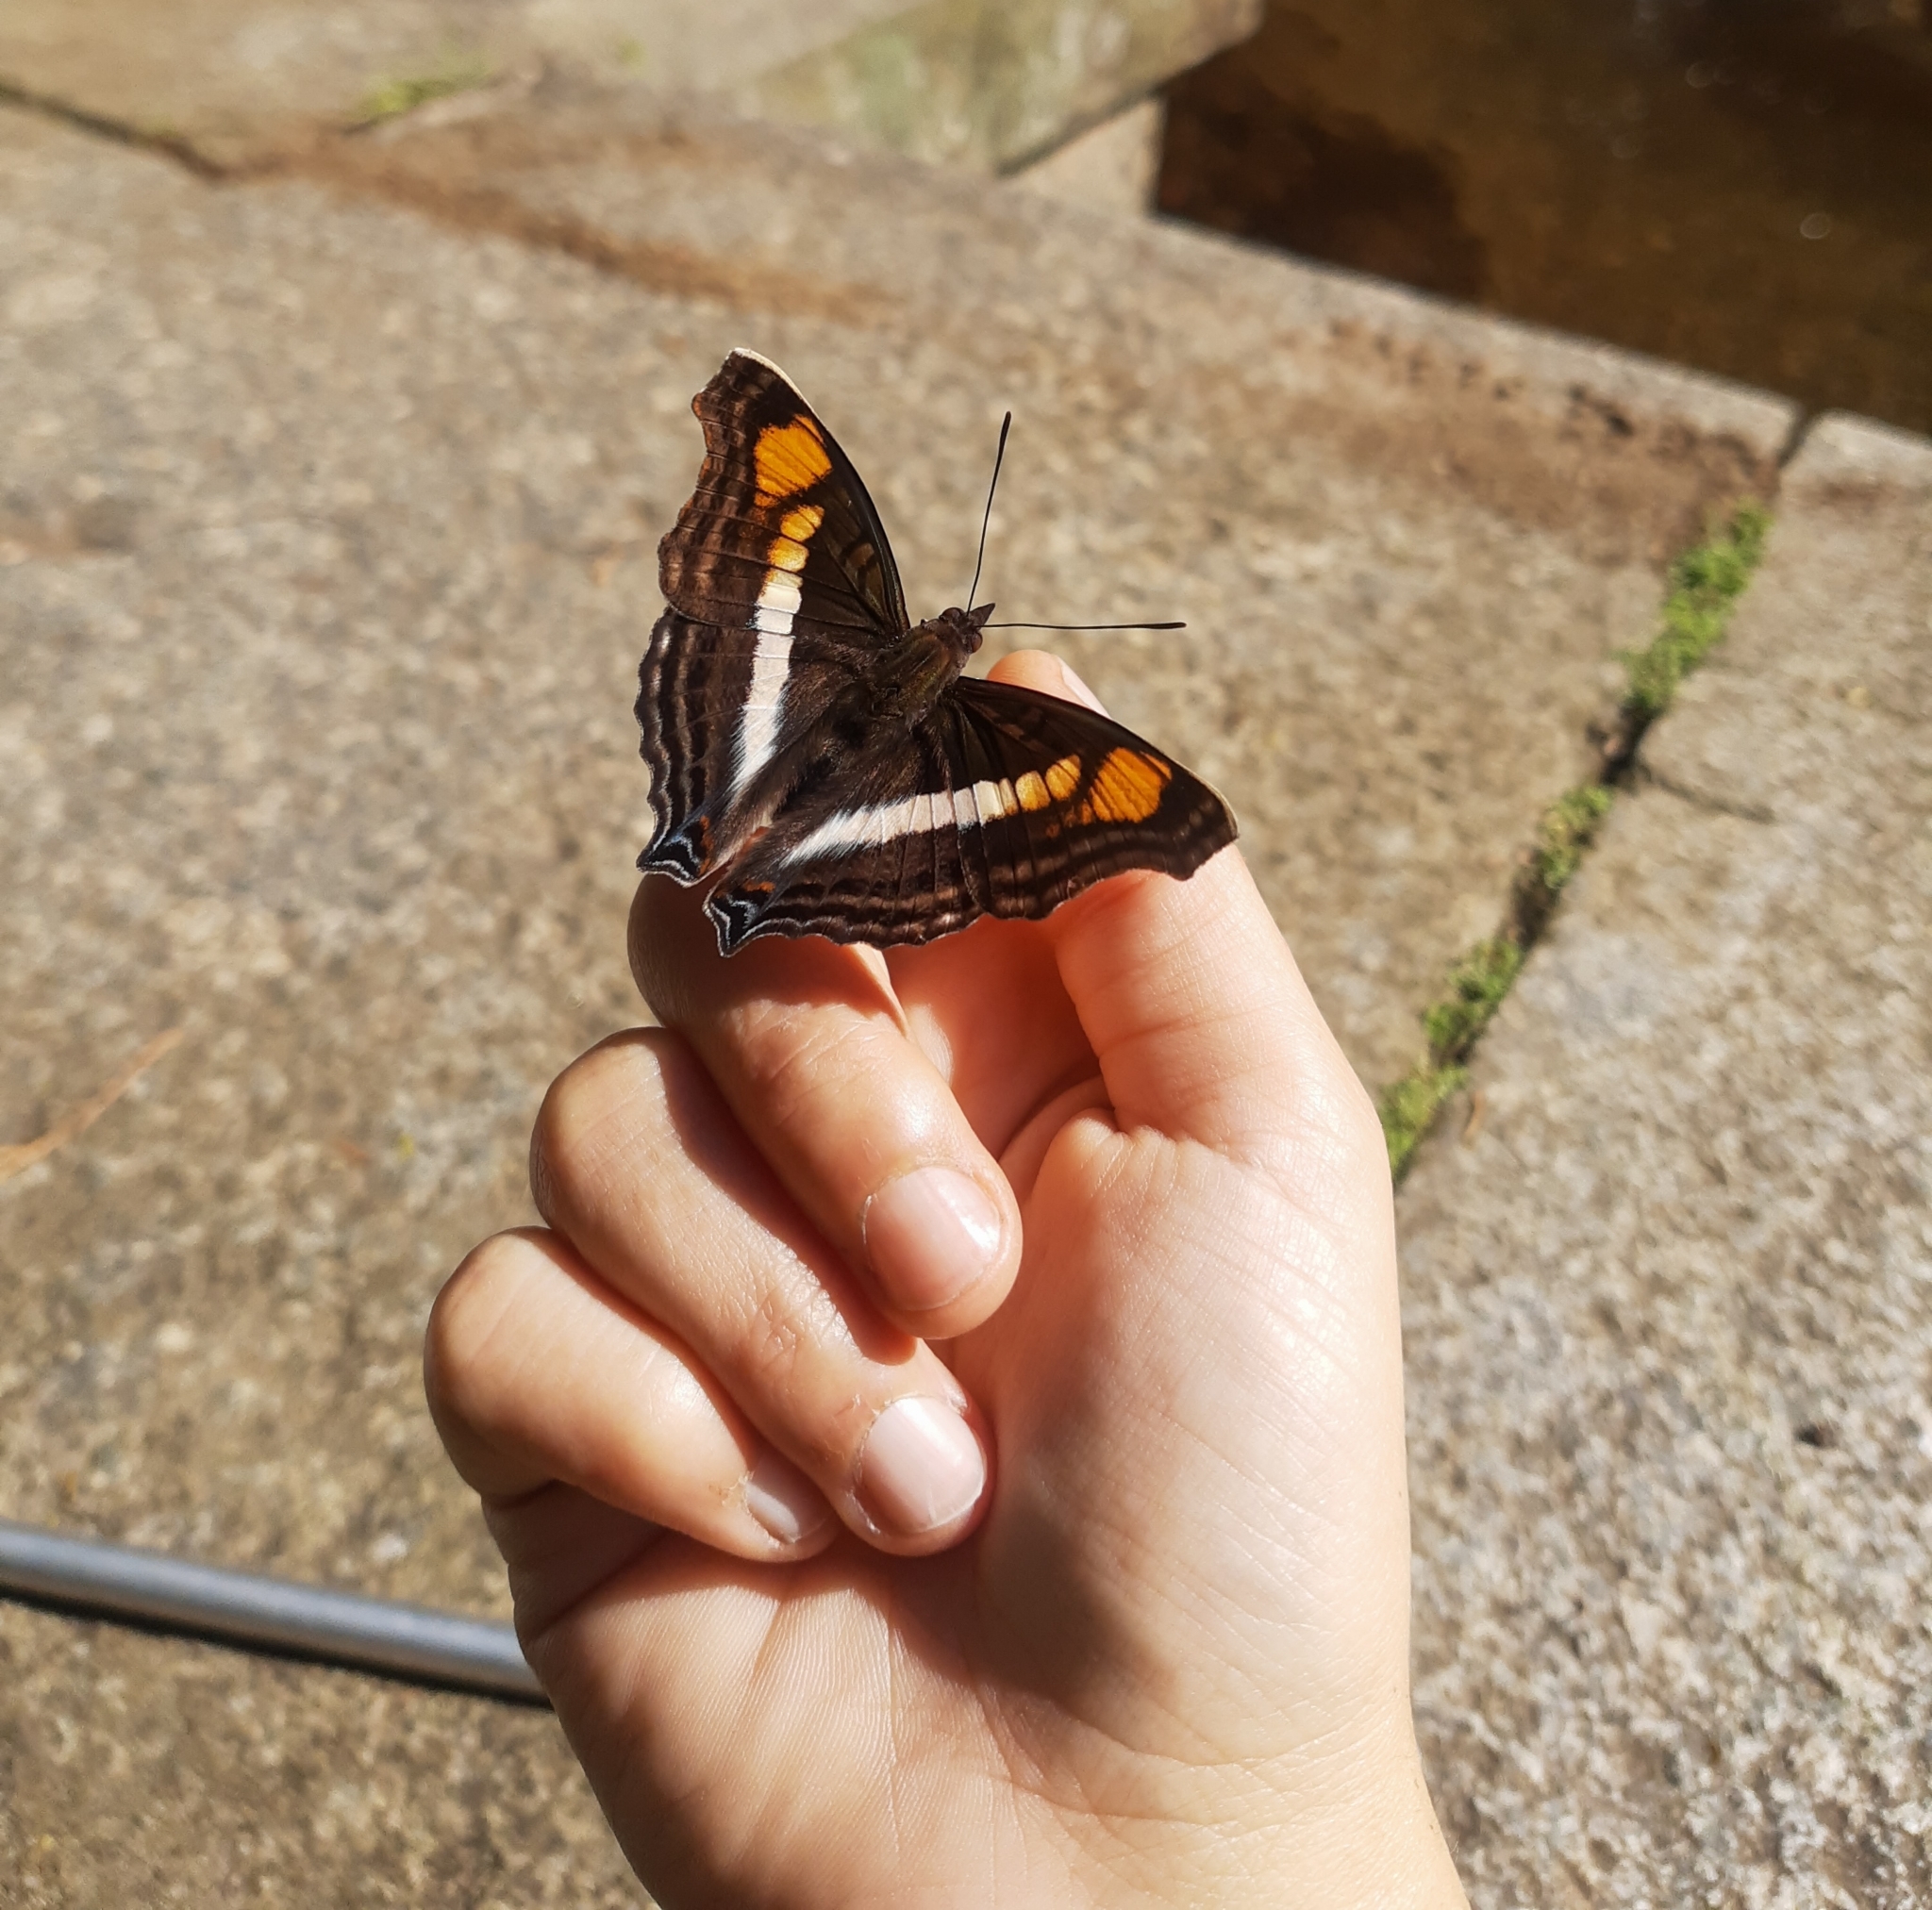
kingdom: Animalia
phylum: Arthropoda
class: Insecta
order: Lepidoptera
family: Nymphalidae
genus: Doxocopa
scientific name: Doxocopa linda
